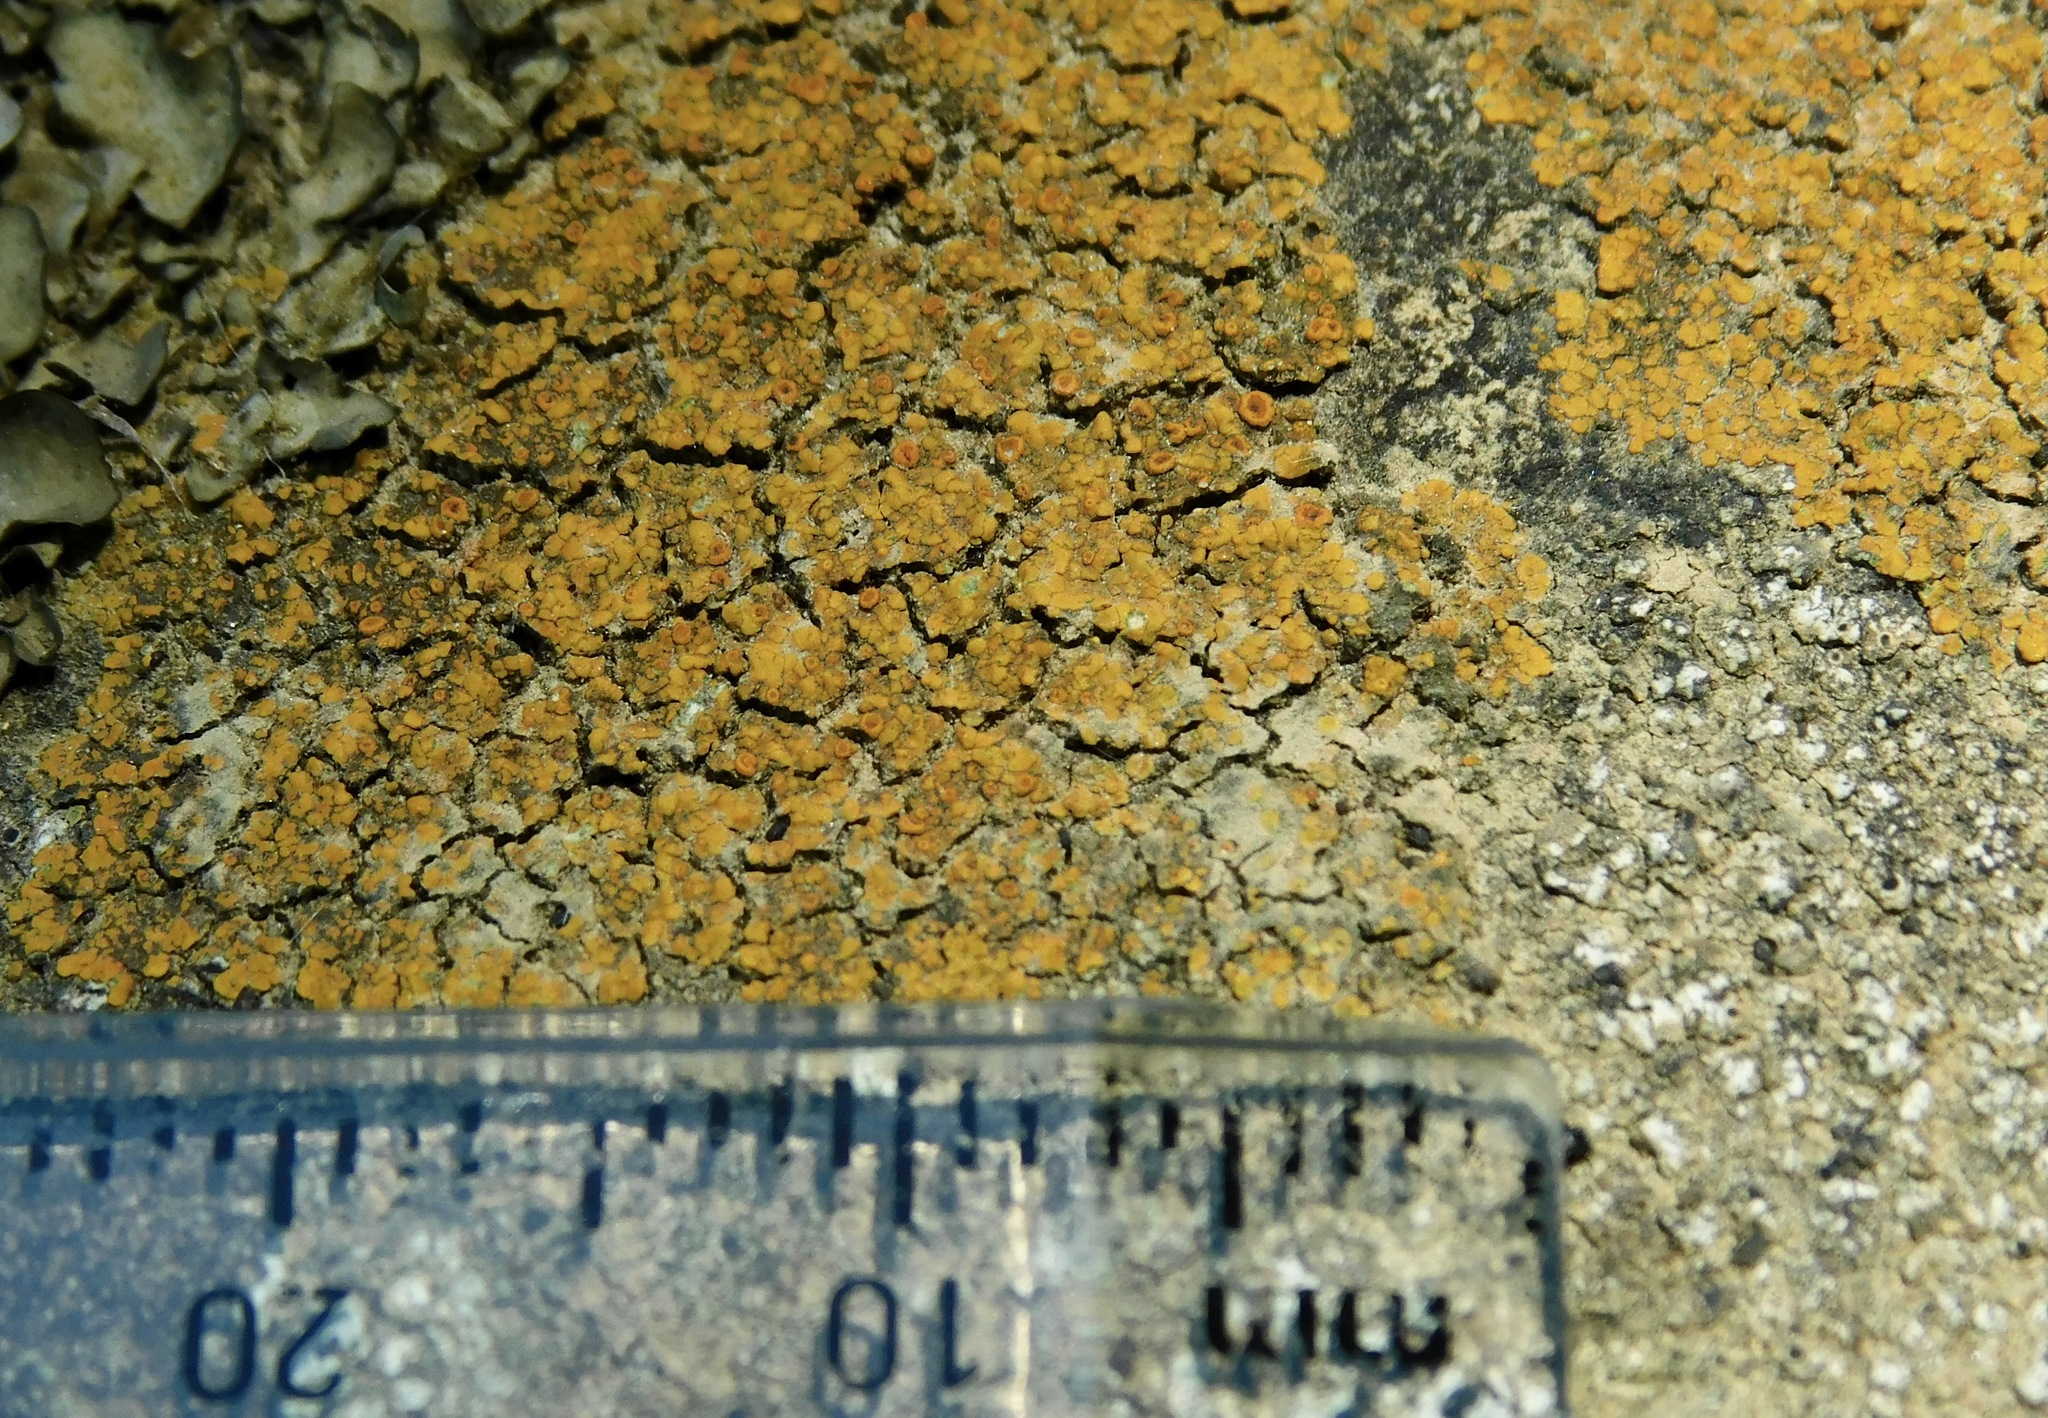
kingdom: Fungi
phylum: Ascomycota
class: Lecanoromycetes
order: Teloschistales
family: Teloschistaceae
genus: Xanthocarpia
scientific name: Xanthocarpia feracissima
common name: Sidewalk firedot
